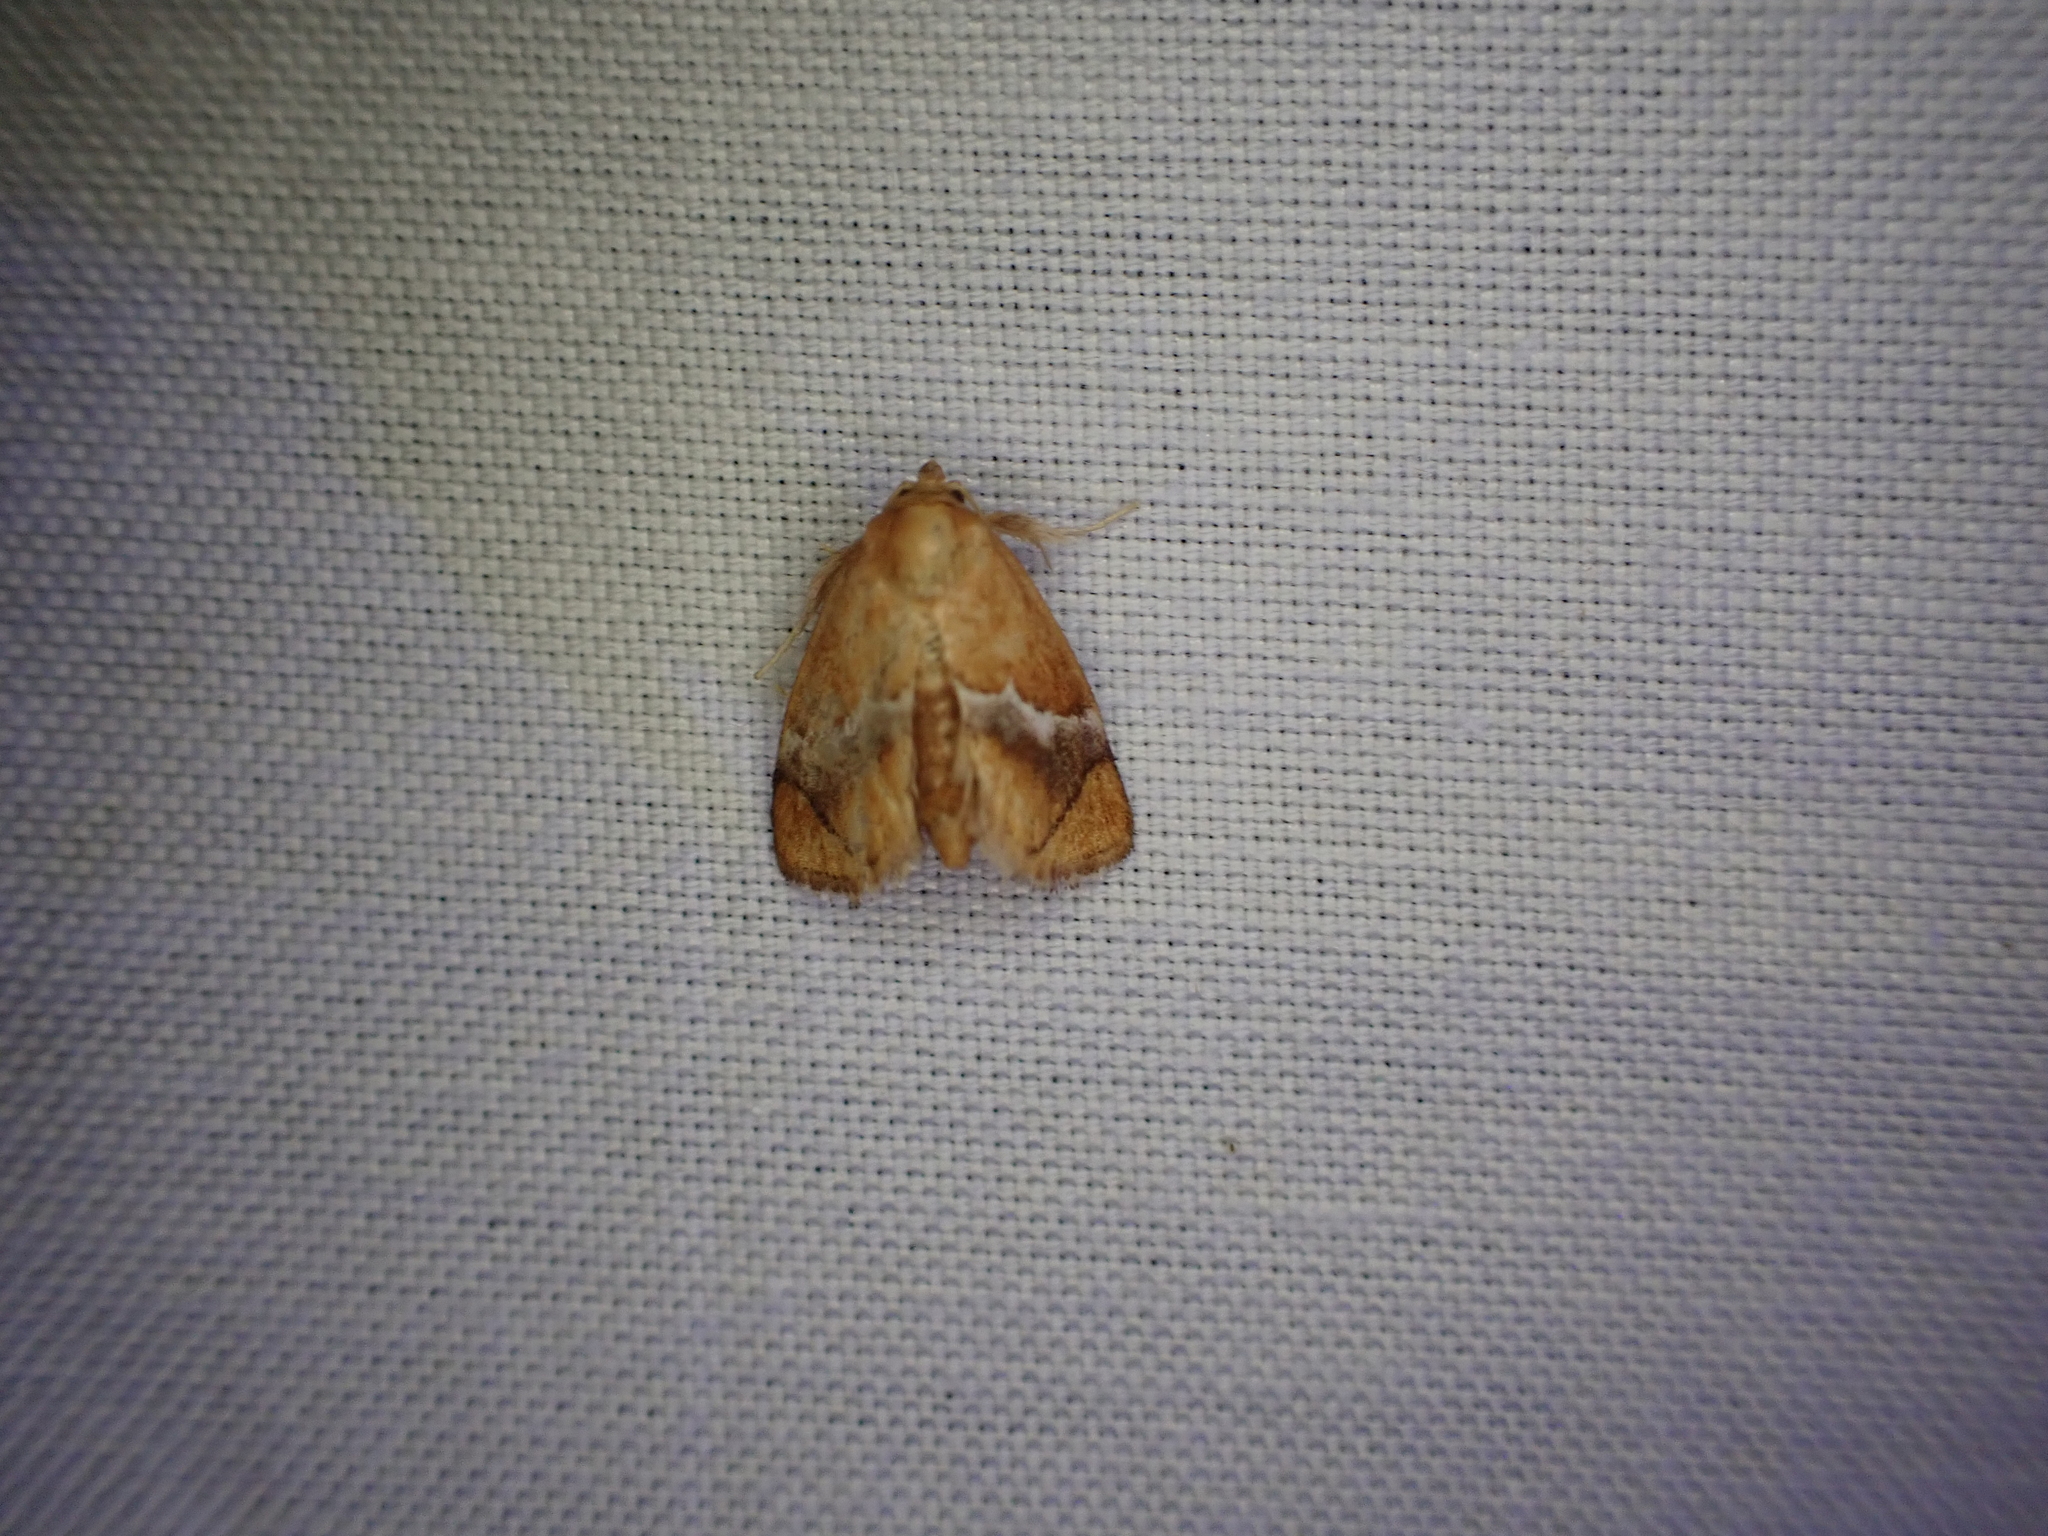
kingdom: Animalia
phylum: Arthropoda
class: Insecta
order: Lepidoptera
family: Limacodidae
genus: Lithacodes
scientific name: Lithacodes fasciola
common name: Yellow-shouldered slug moth
